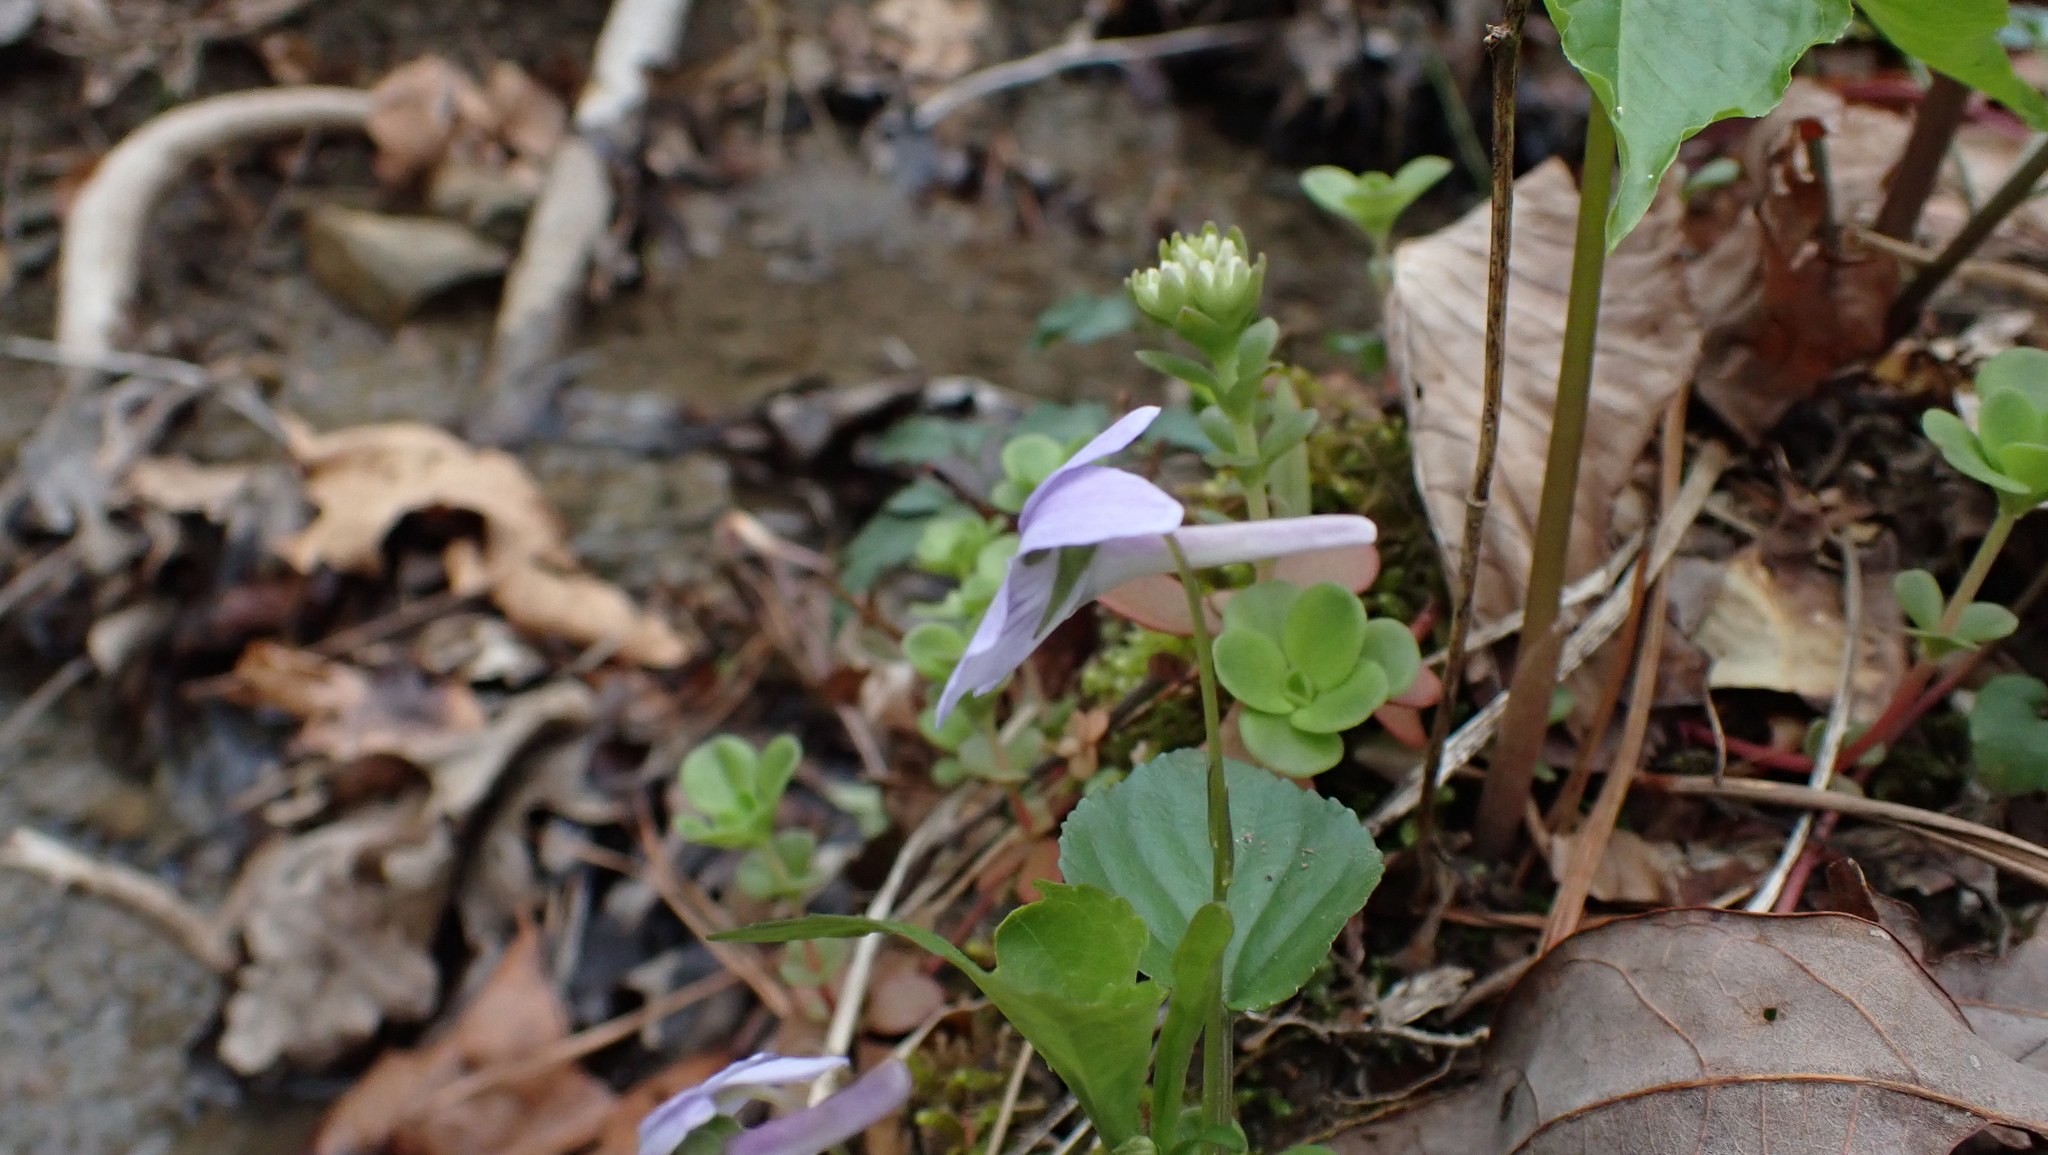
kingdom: Plantae
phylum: Tracheophyta
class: Magnoliopsida
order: Malpighiales
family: Violaceae
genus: Viola
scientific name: Viola rostrata
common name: Long-spur violet
